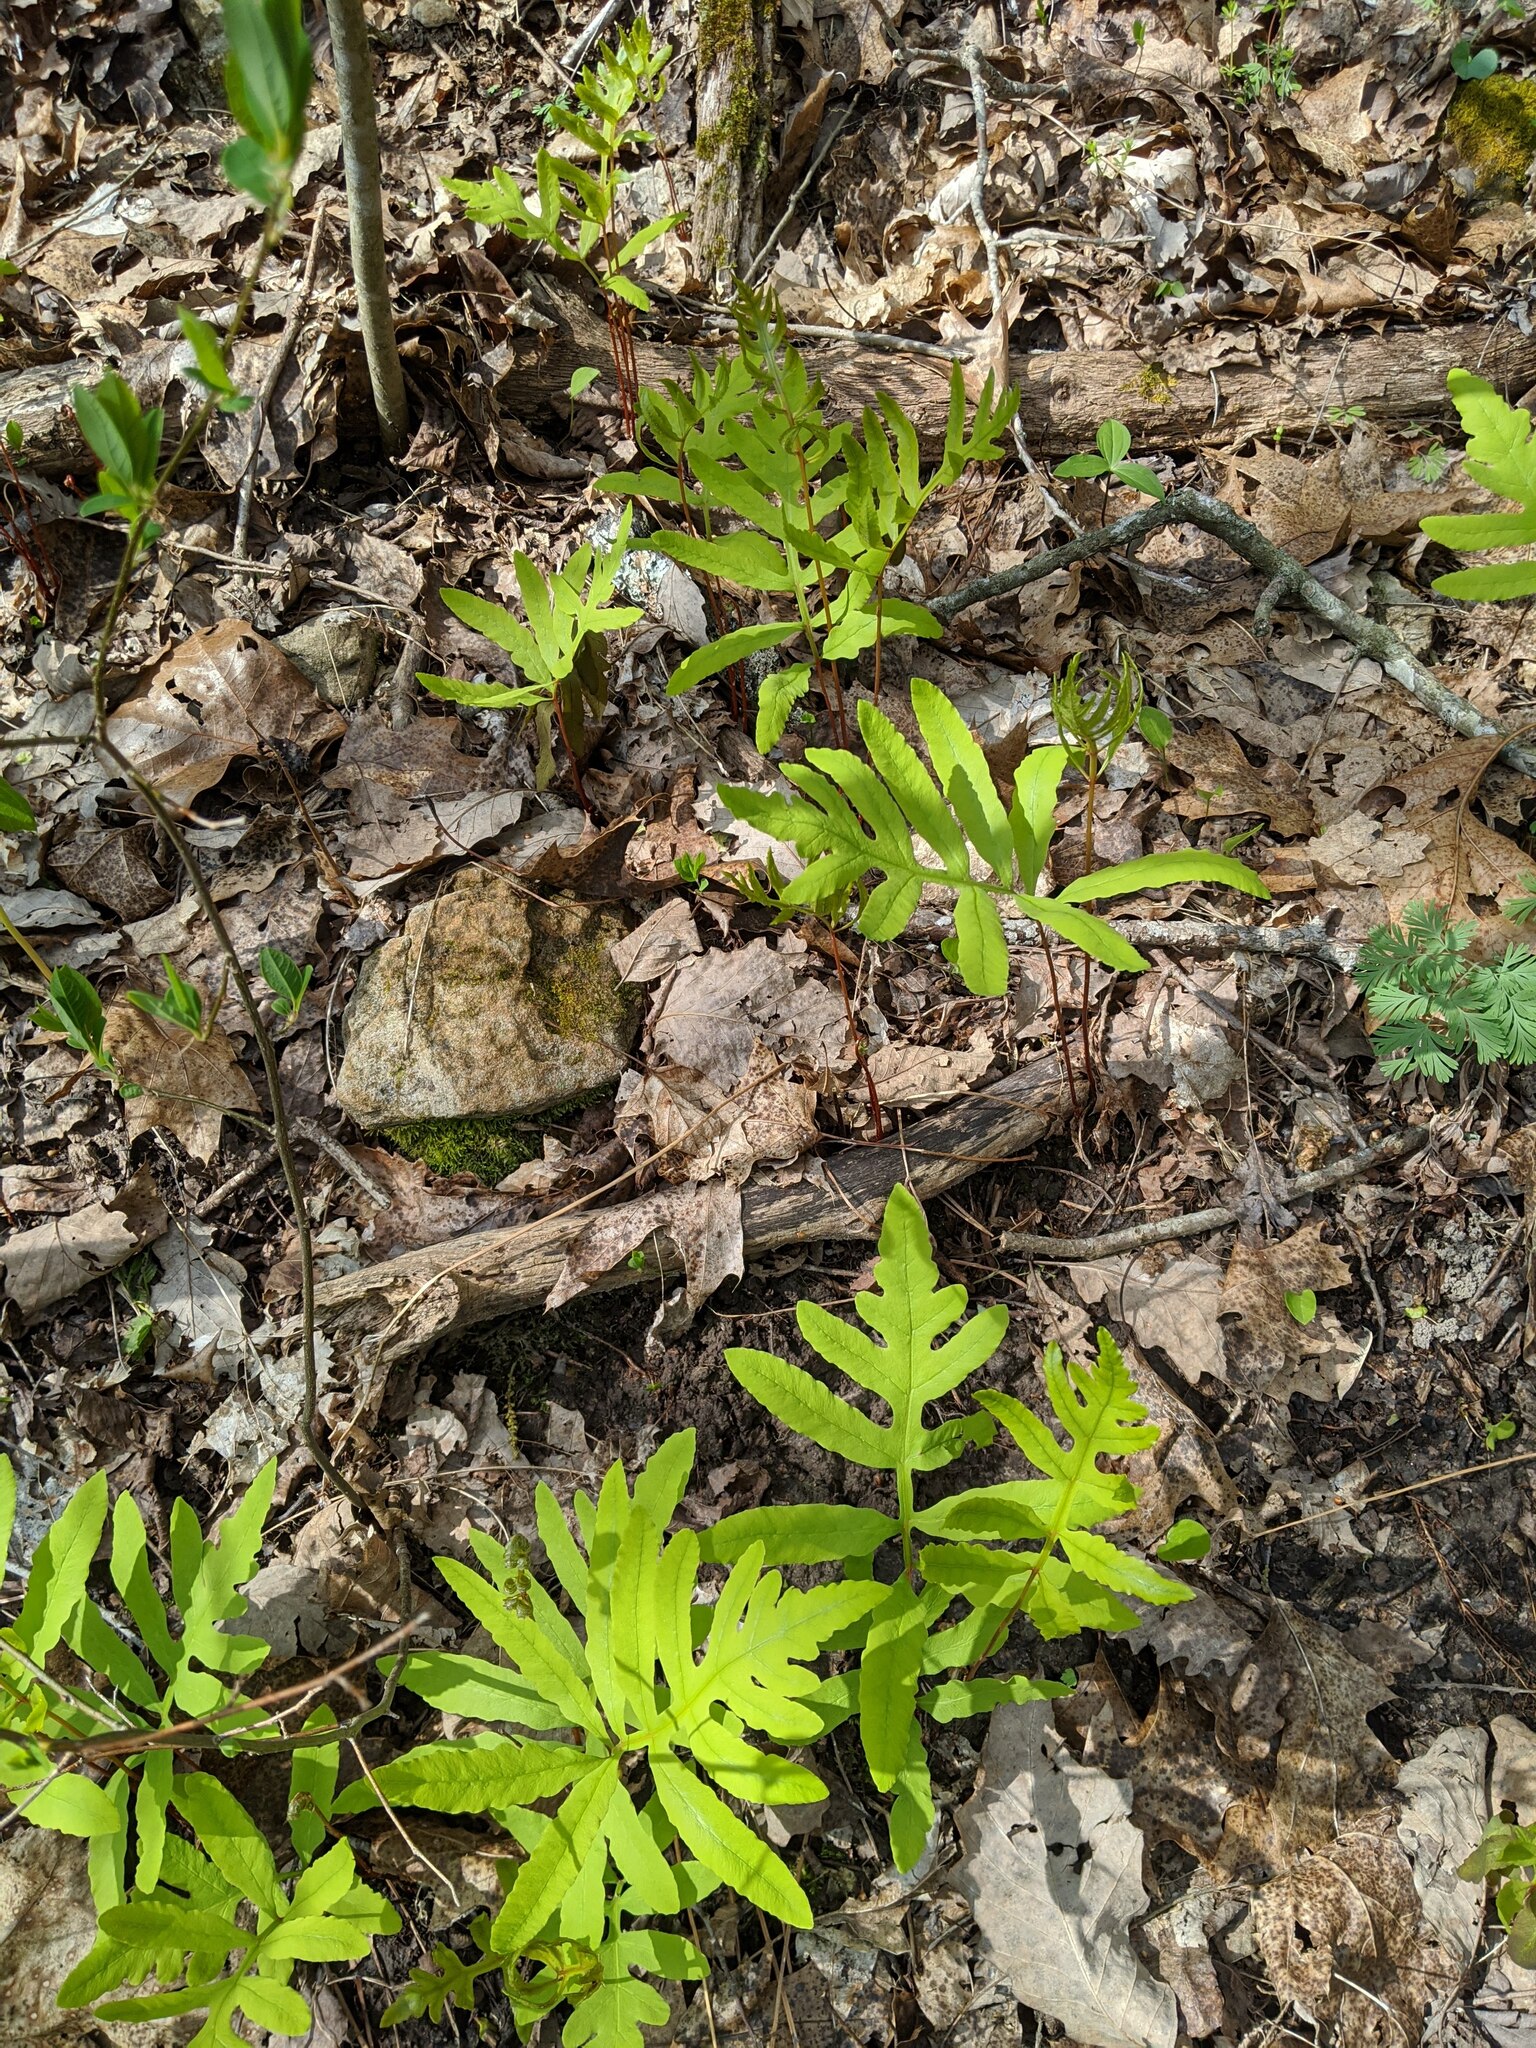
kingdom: Plantae
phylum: Tracheophyta
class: Polypodiopsida
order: Polypodiales
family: Onocleaceae
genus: Onoclea
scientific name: Onoclea sensibilis
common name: Sensitive fern
